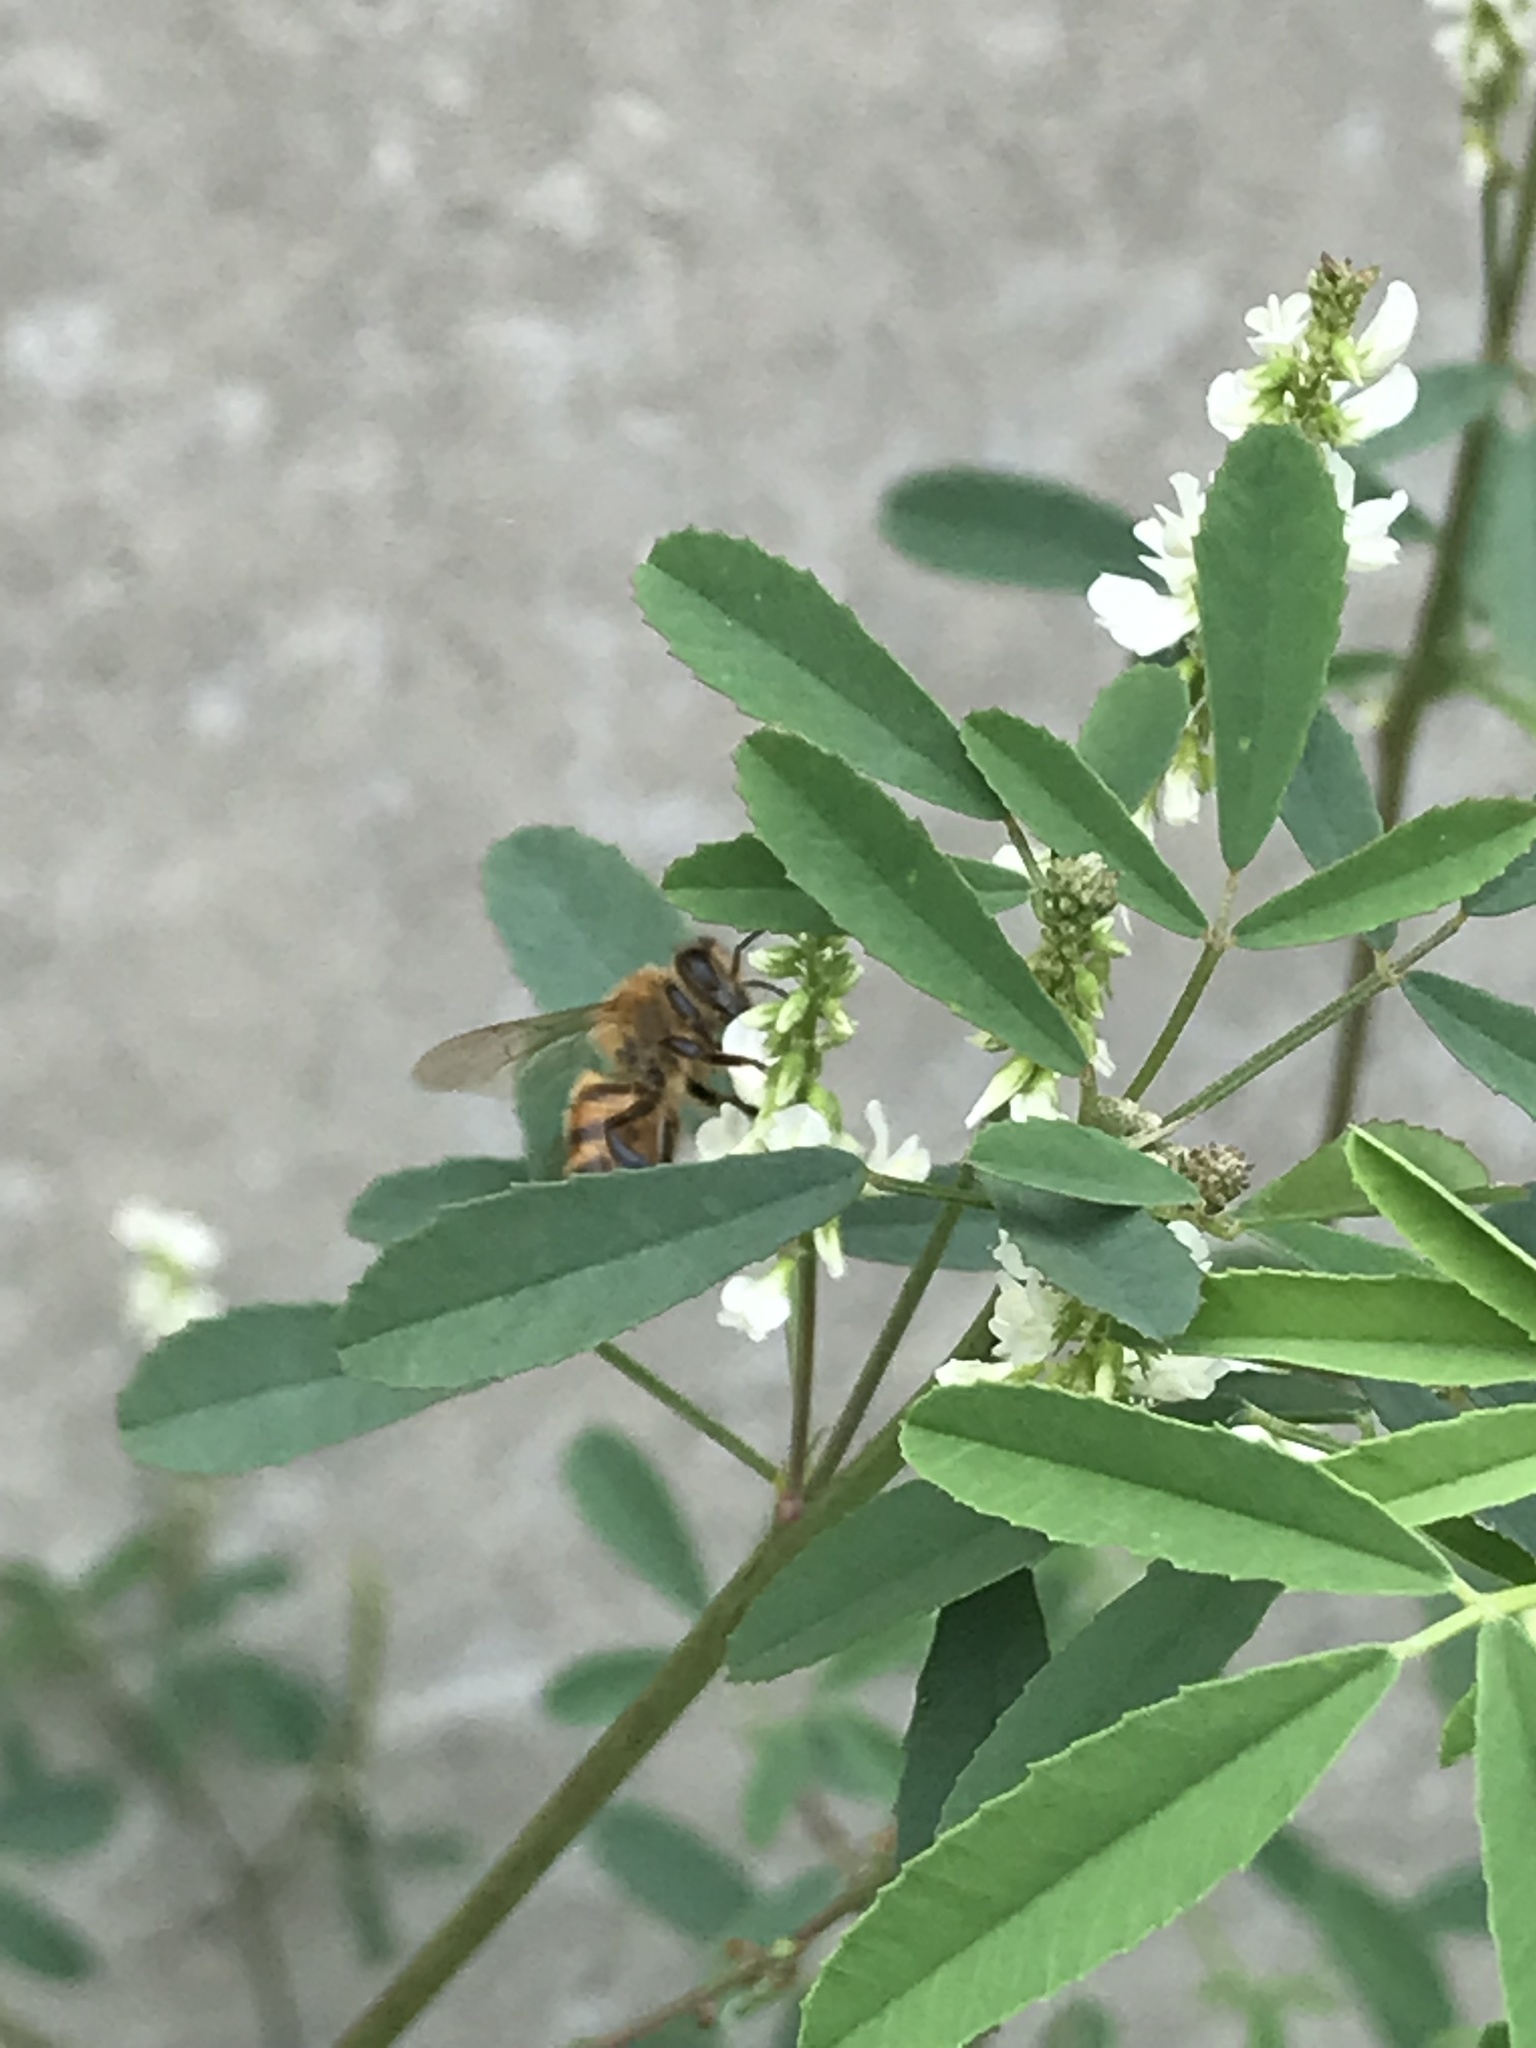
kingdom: Animalia
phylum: Arthropoda
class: Insecta
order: Hymenoptera
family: Apidae
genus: Apis
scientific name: Apis mellifera
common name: Honey bee
